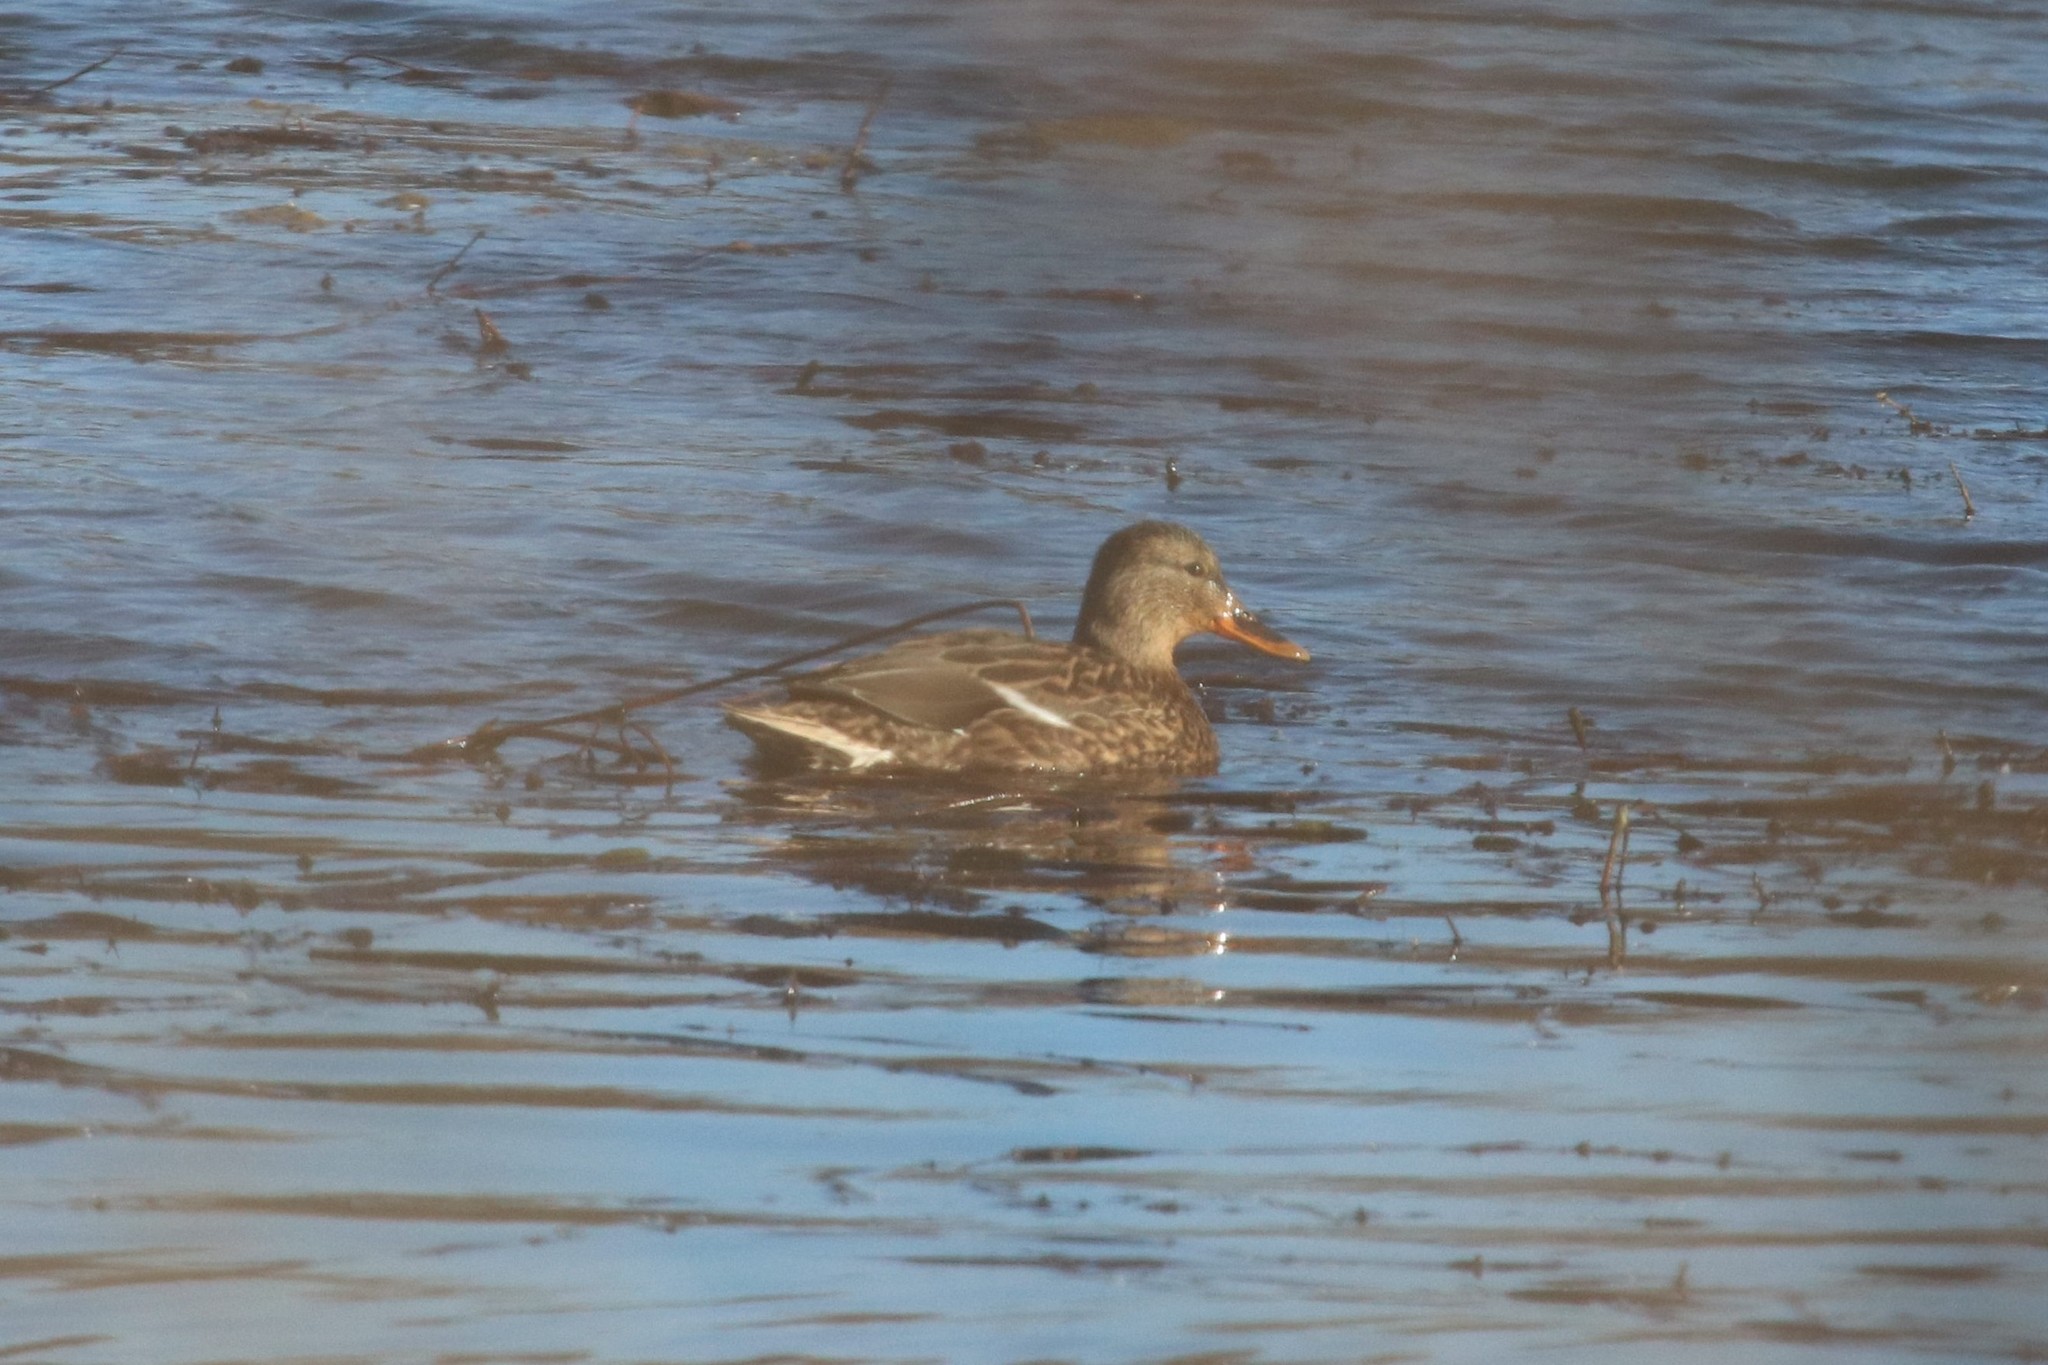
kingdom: Animalia
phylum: Chordata
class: Aves
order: Anseriformes
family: Anatidae
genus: Anas
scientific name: Anas platyrhynchos
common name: Mallard
